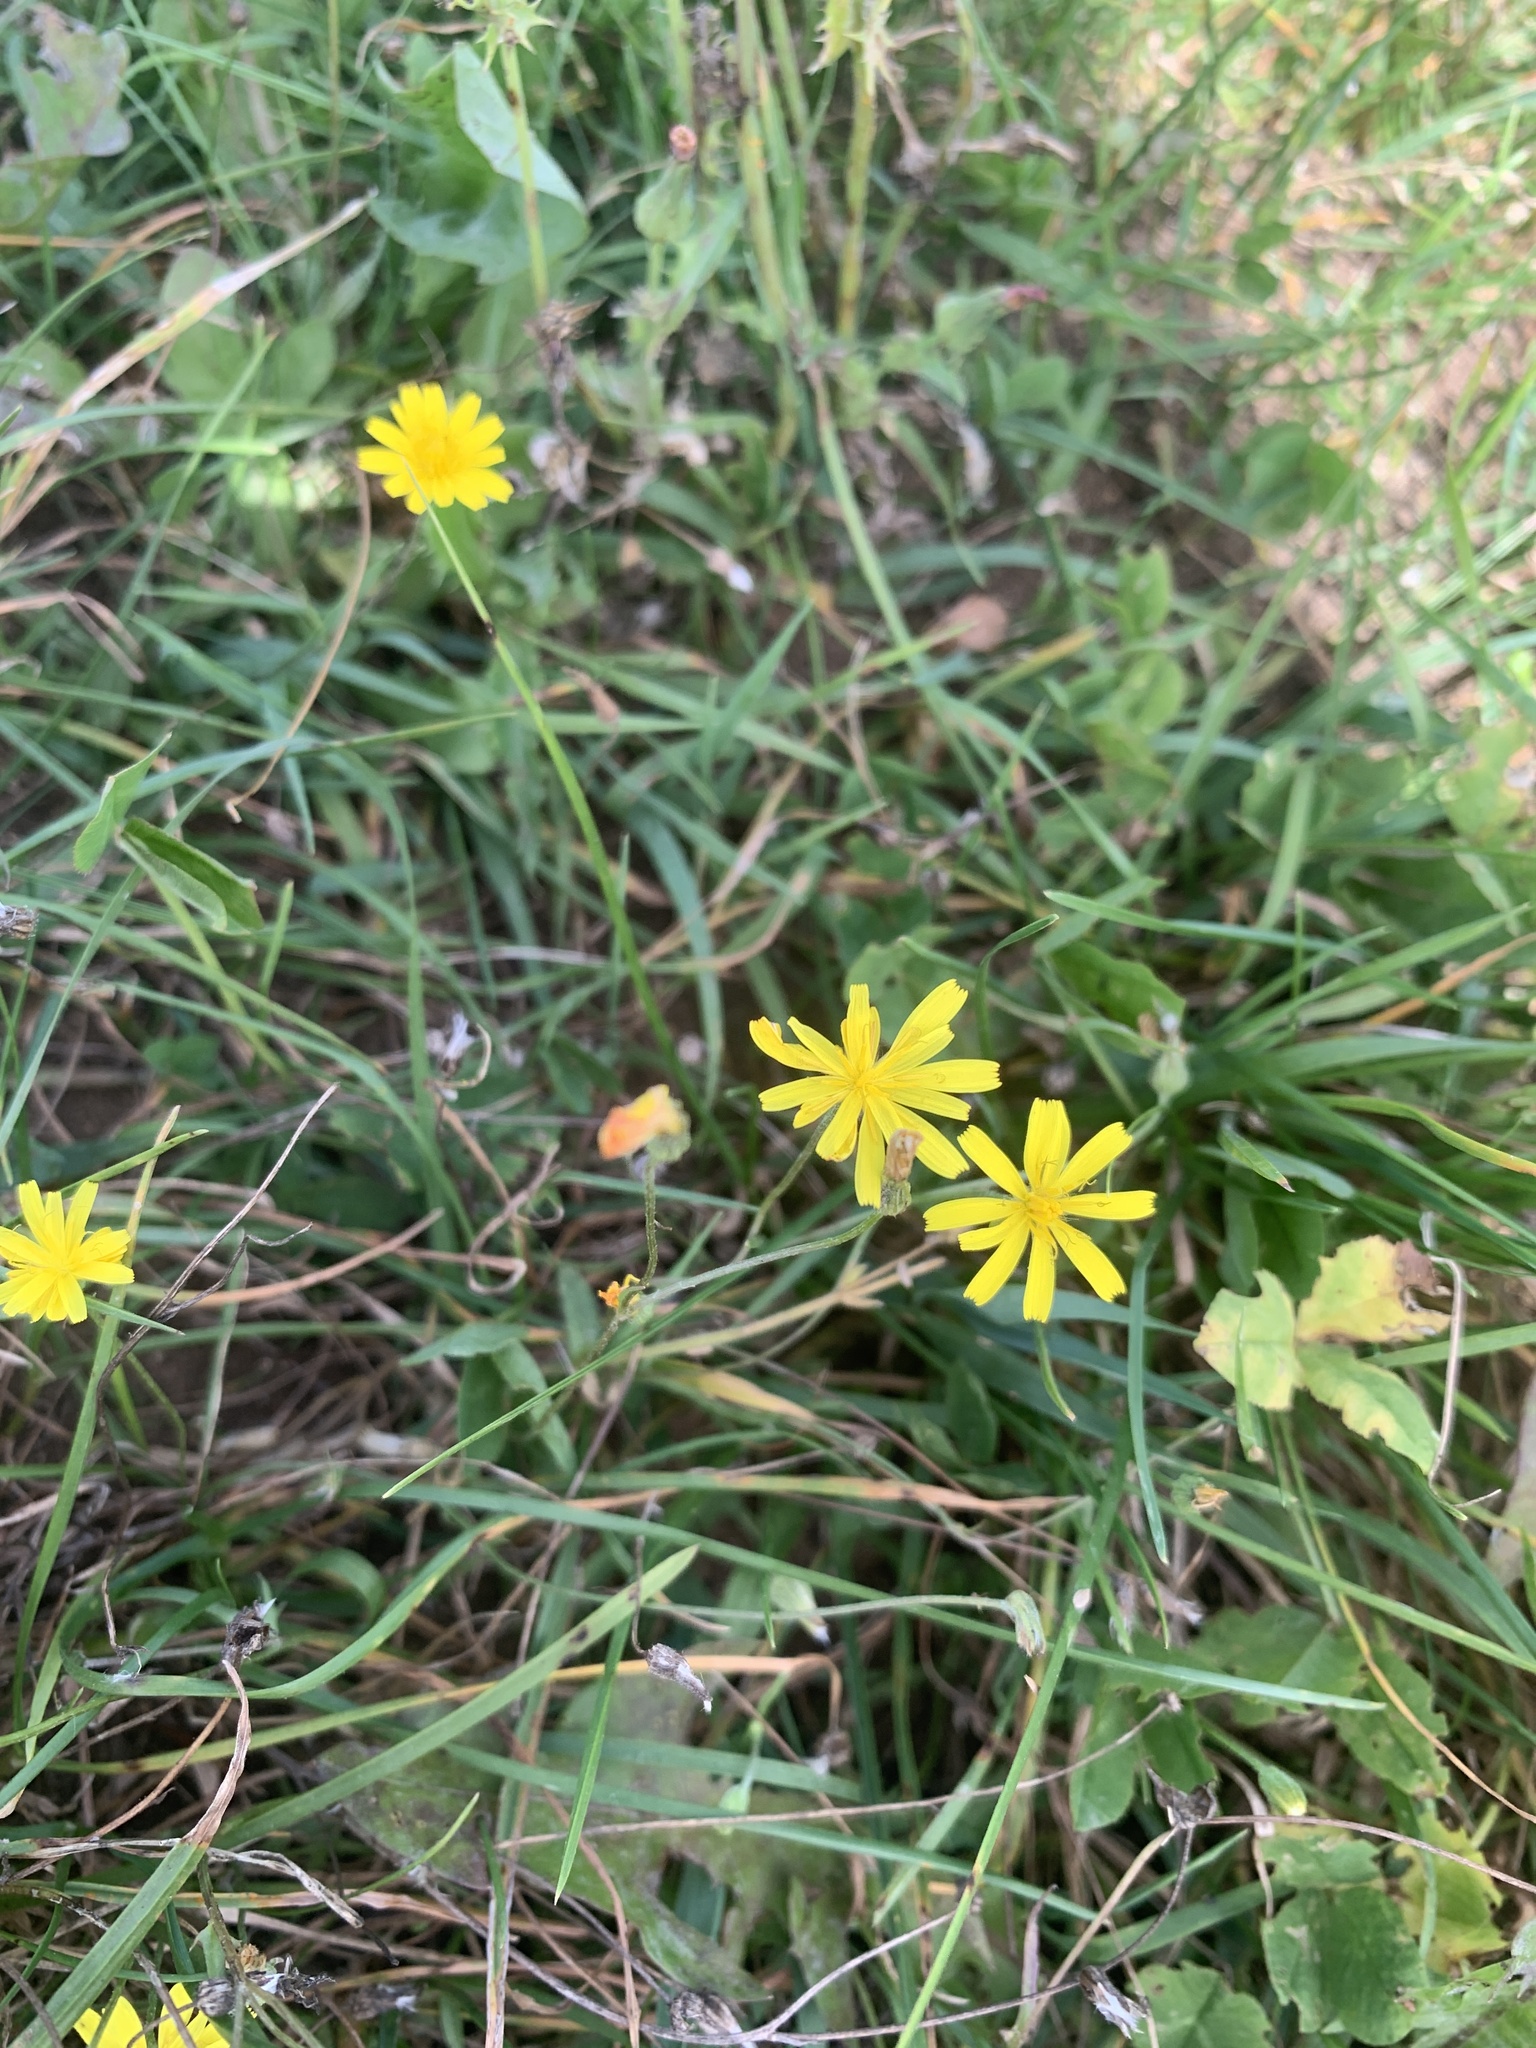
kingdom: Plantae
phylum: Tracheophyta
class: Magnoliopsida
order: Asterales
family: Asteraceae
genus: Crepis
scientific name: Crepis capillaris
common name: Smooth hawksbeard
